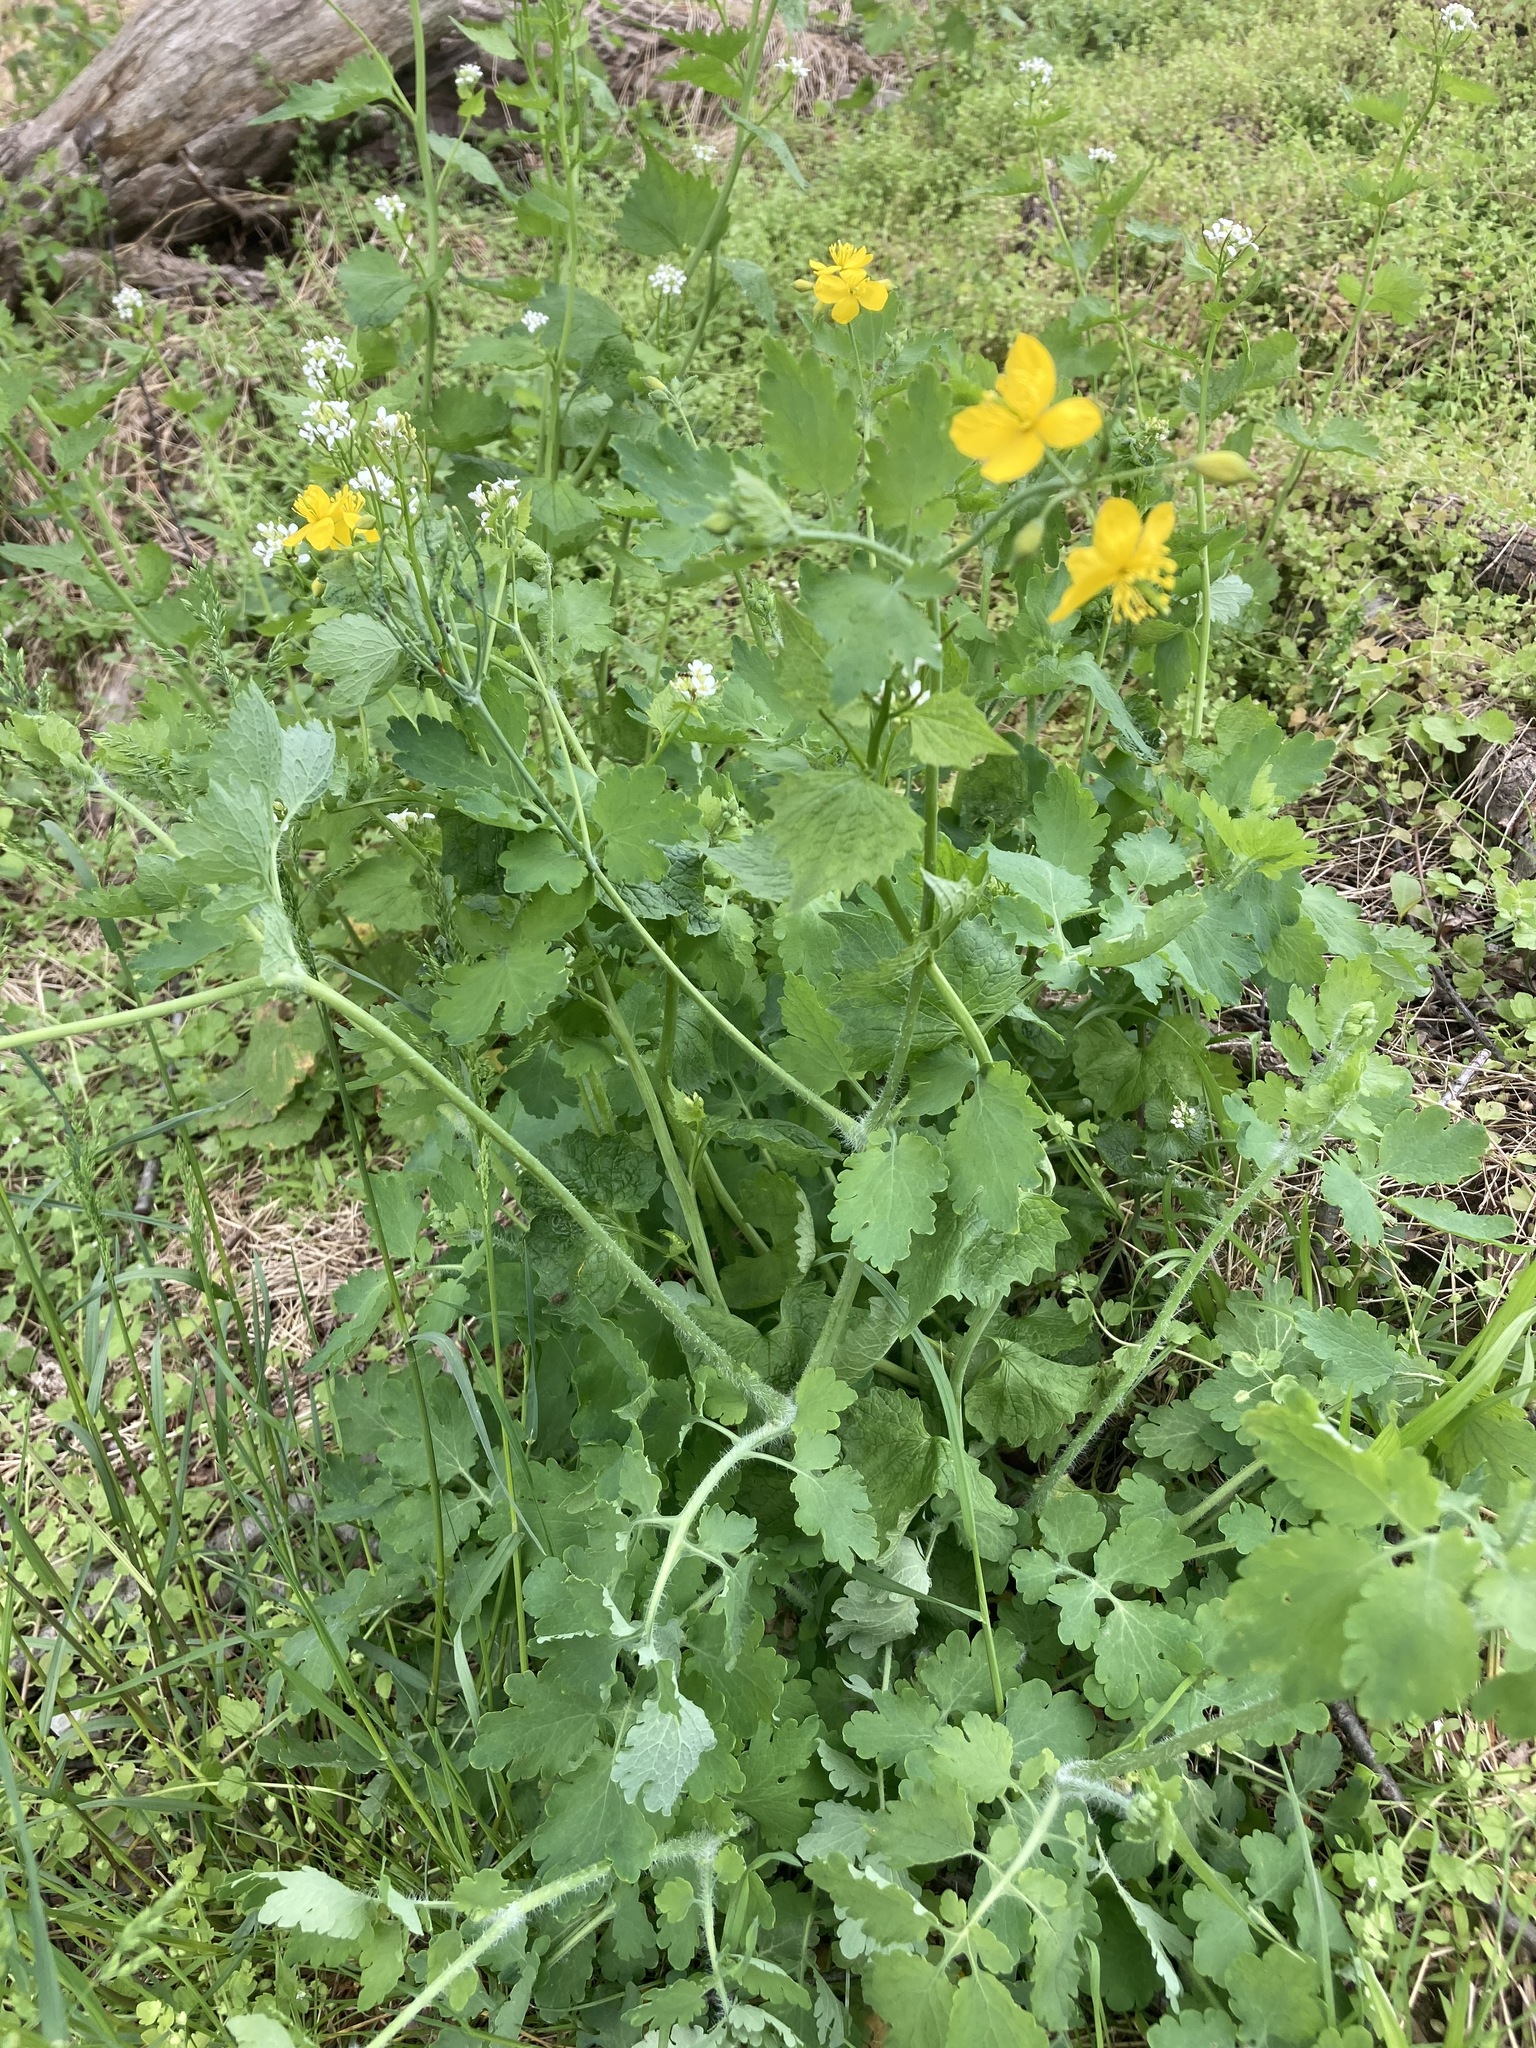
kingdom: Plantae
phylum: Tracheophyta
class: Magnoliopsida
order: Ranunculales
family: Papaveraceae
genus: Chelidonium
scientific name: Chelidonium majus
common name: Greater celandine
